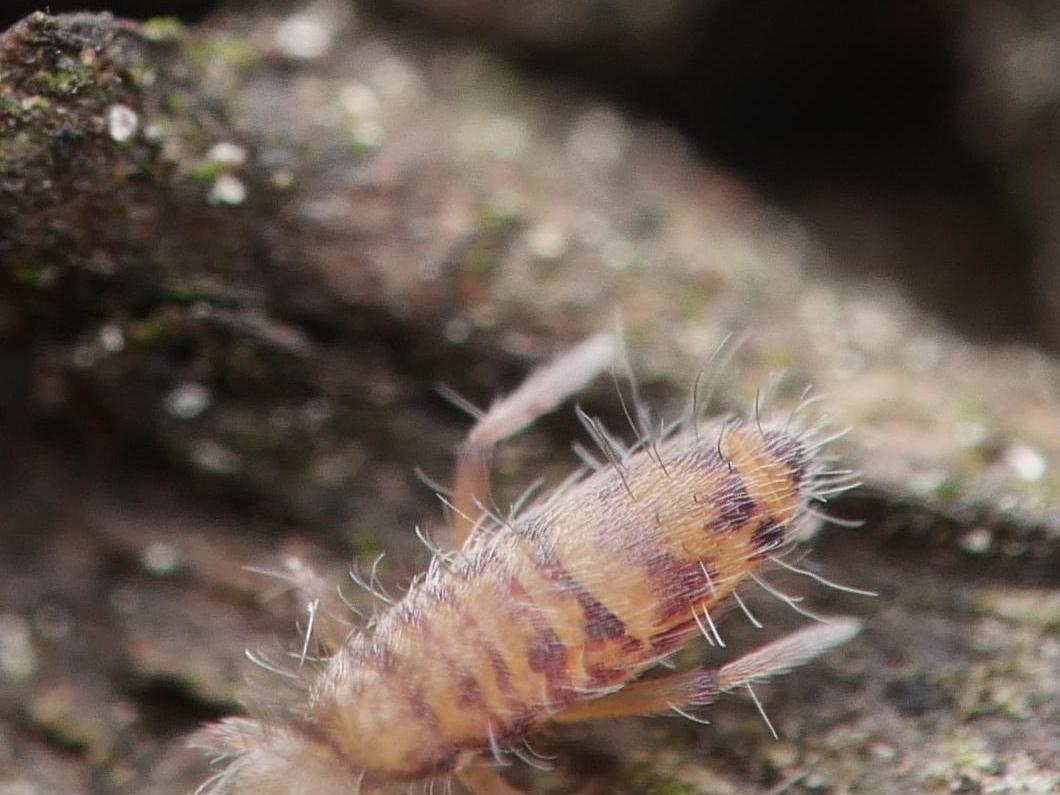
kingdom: Animalia
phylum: Arthropoda
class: Collembola
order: Entomobryomorpha
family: Entomobryidae
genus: Entomobrya
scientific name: Entomobrya multifasciata
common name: Springtail
